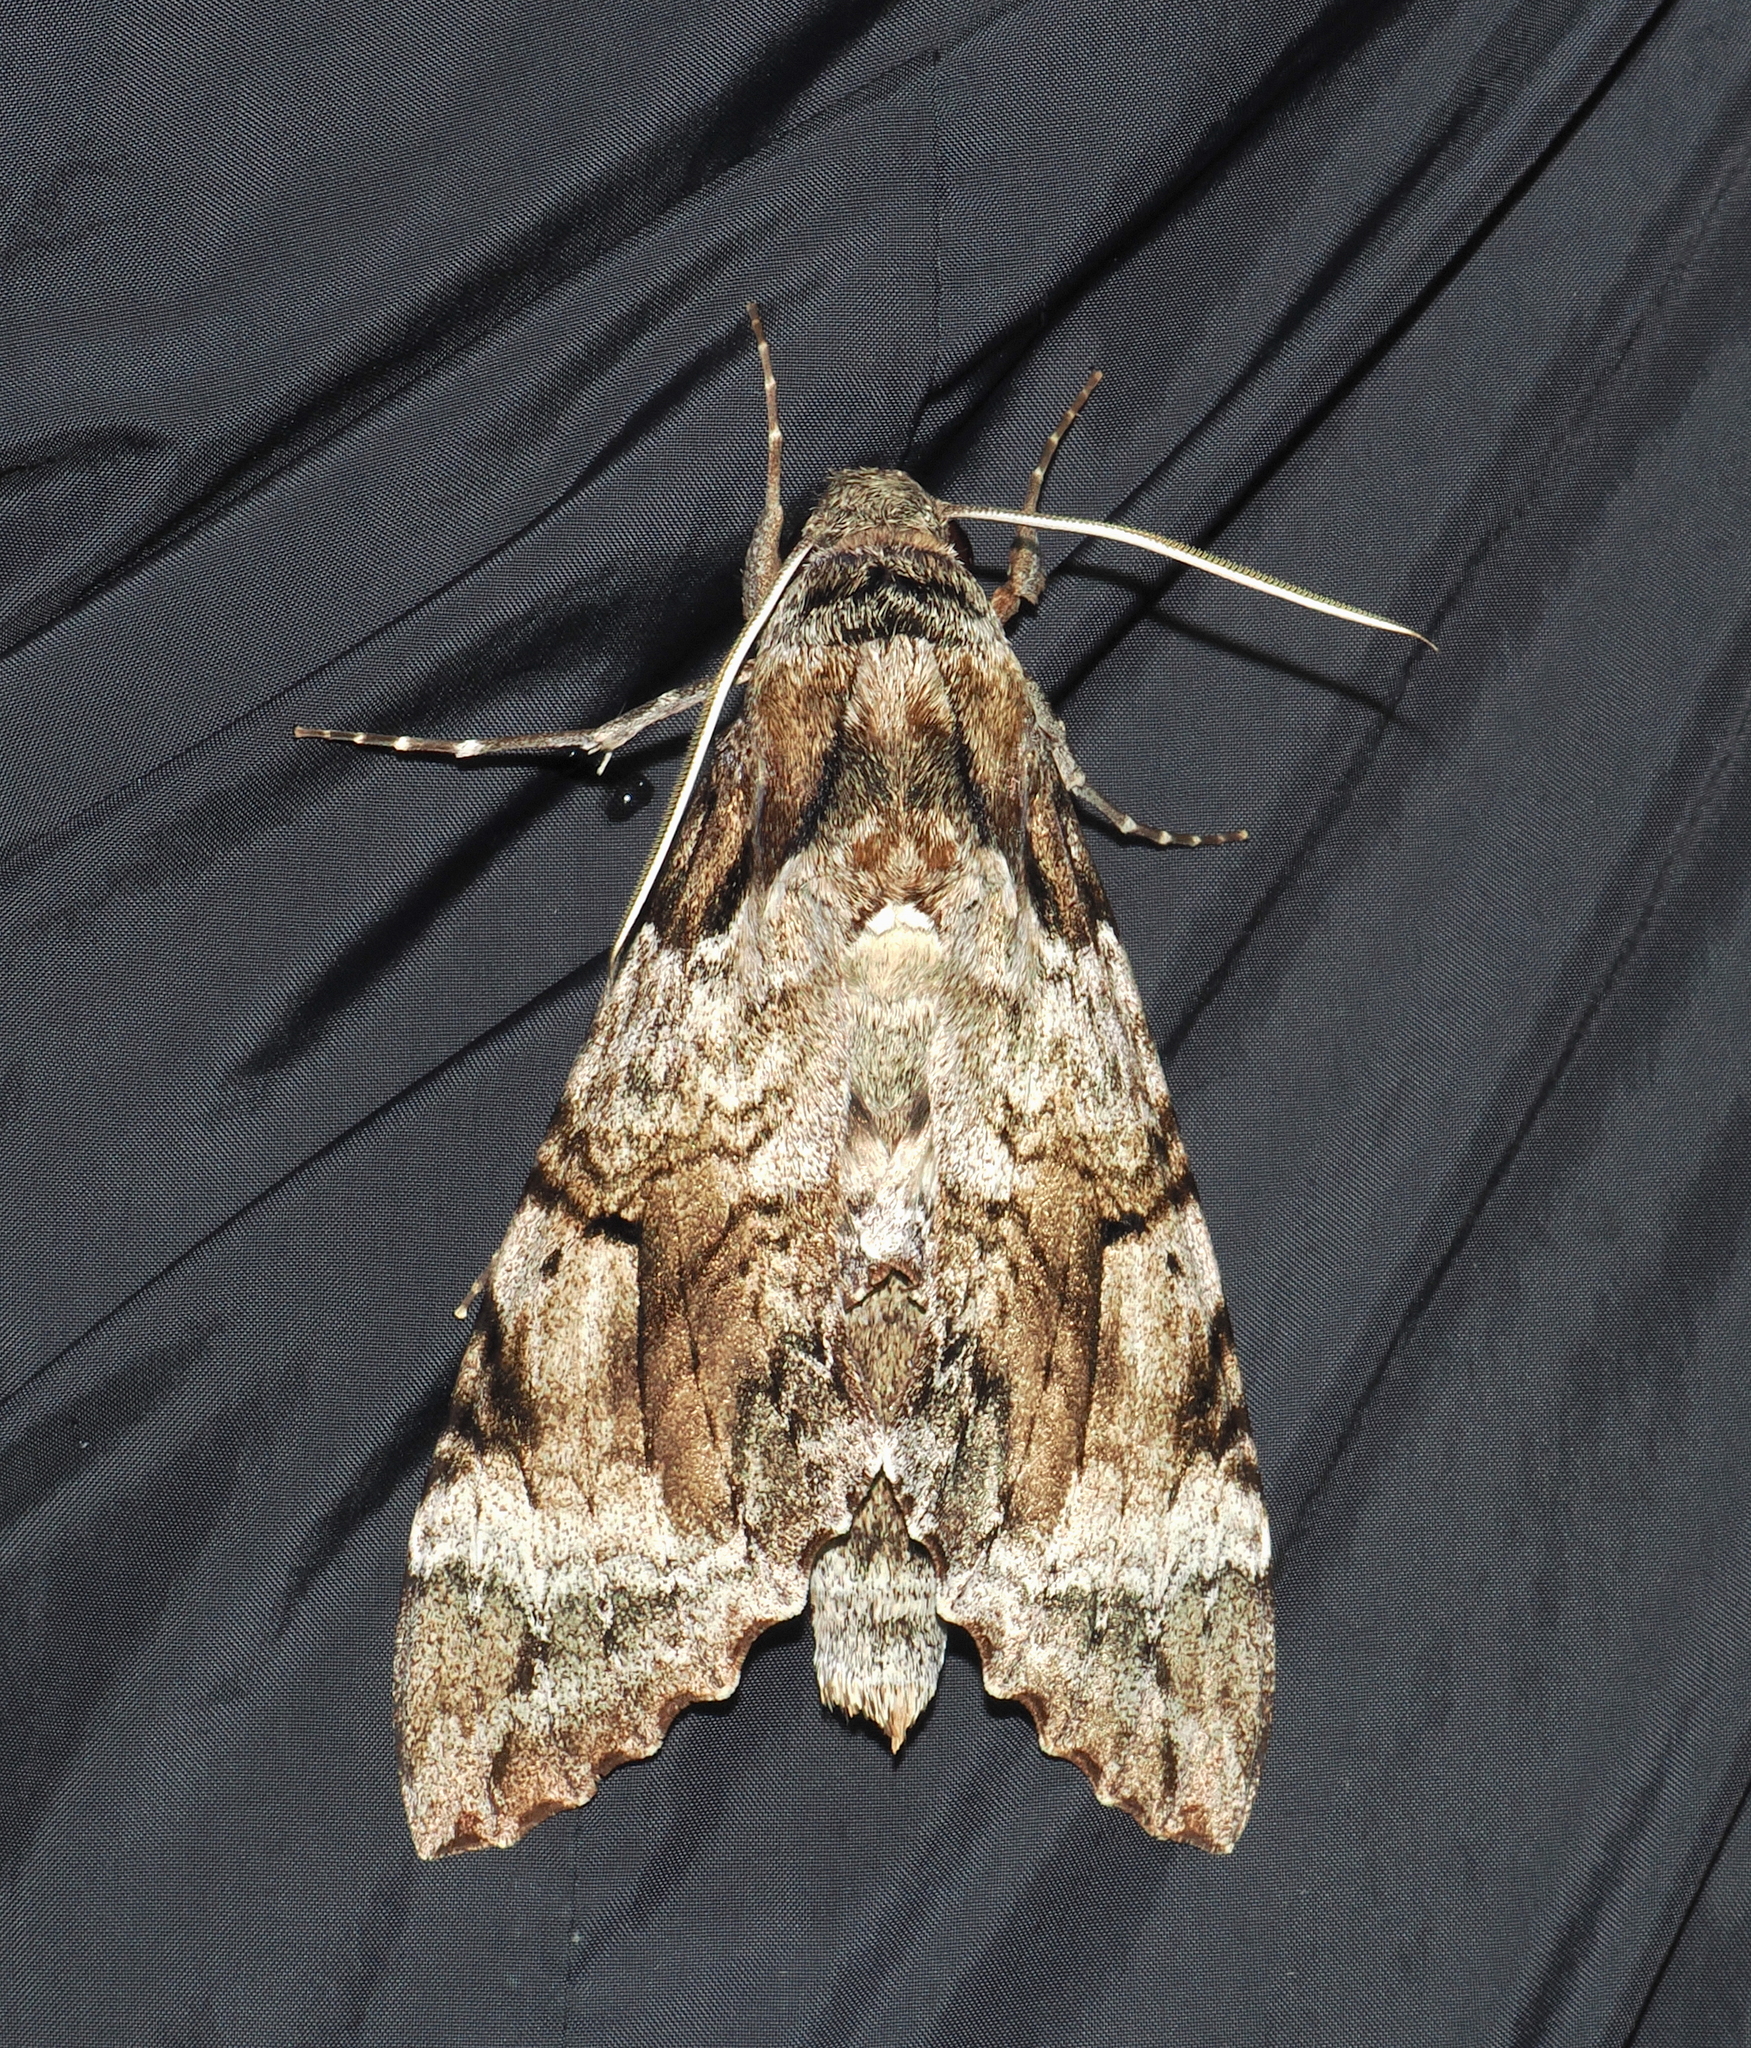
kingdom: Animalia
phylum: Arthropoda
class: Insecta
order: Lepidoptera
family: Sphingidae
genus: Pseudosphinx
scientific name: Pseudosphinx tetrio
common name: Tetrio sphinx
